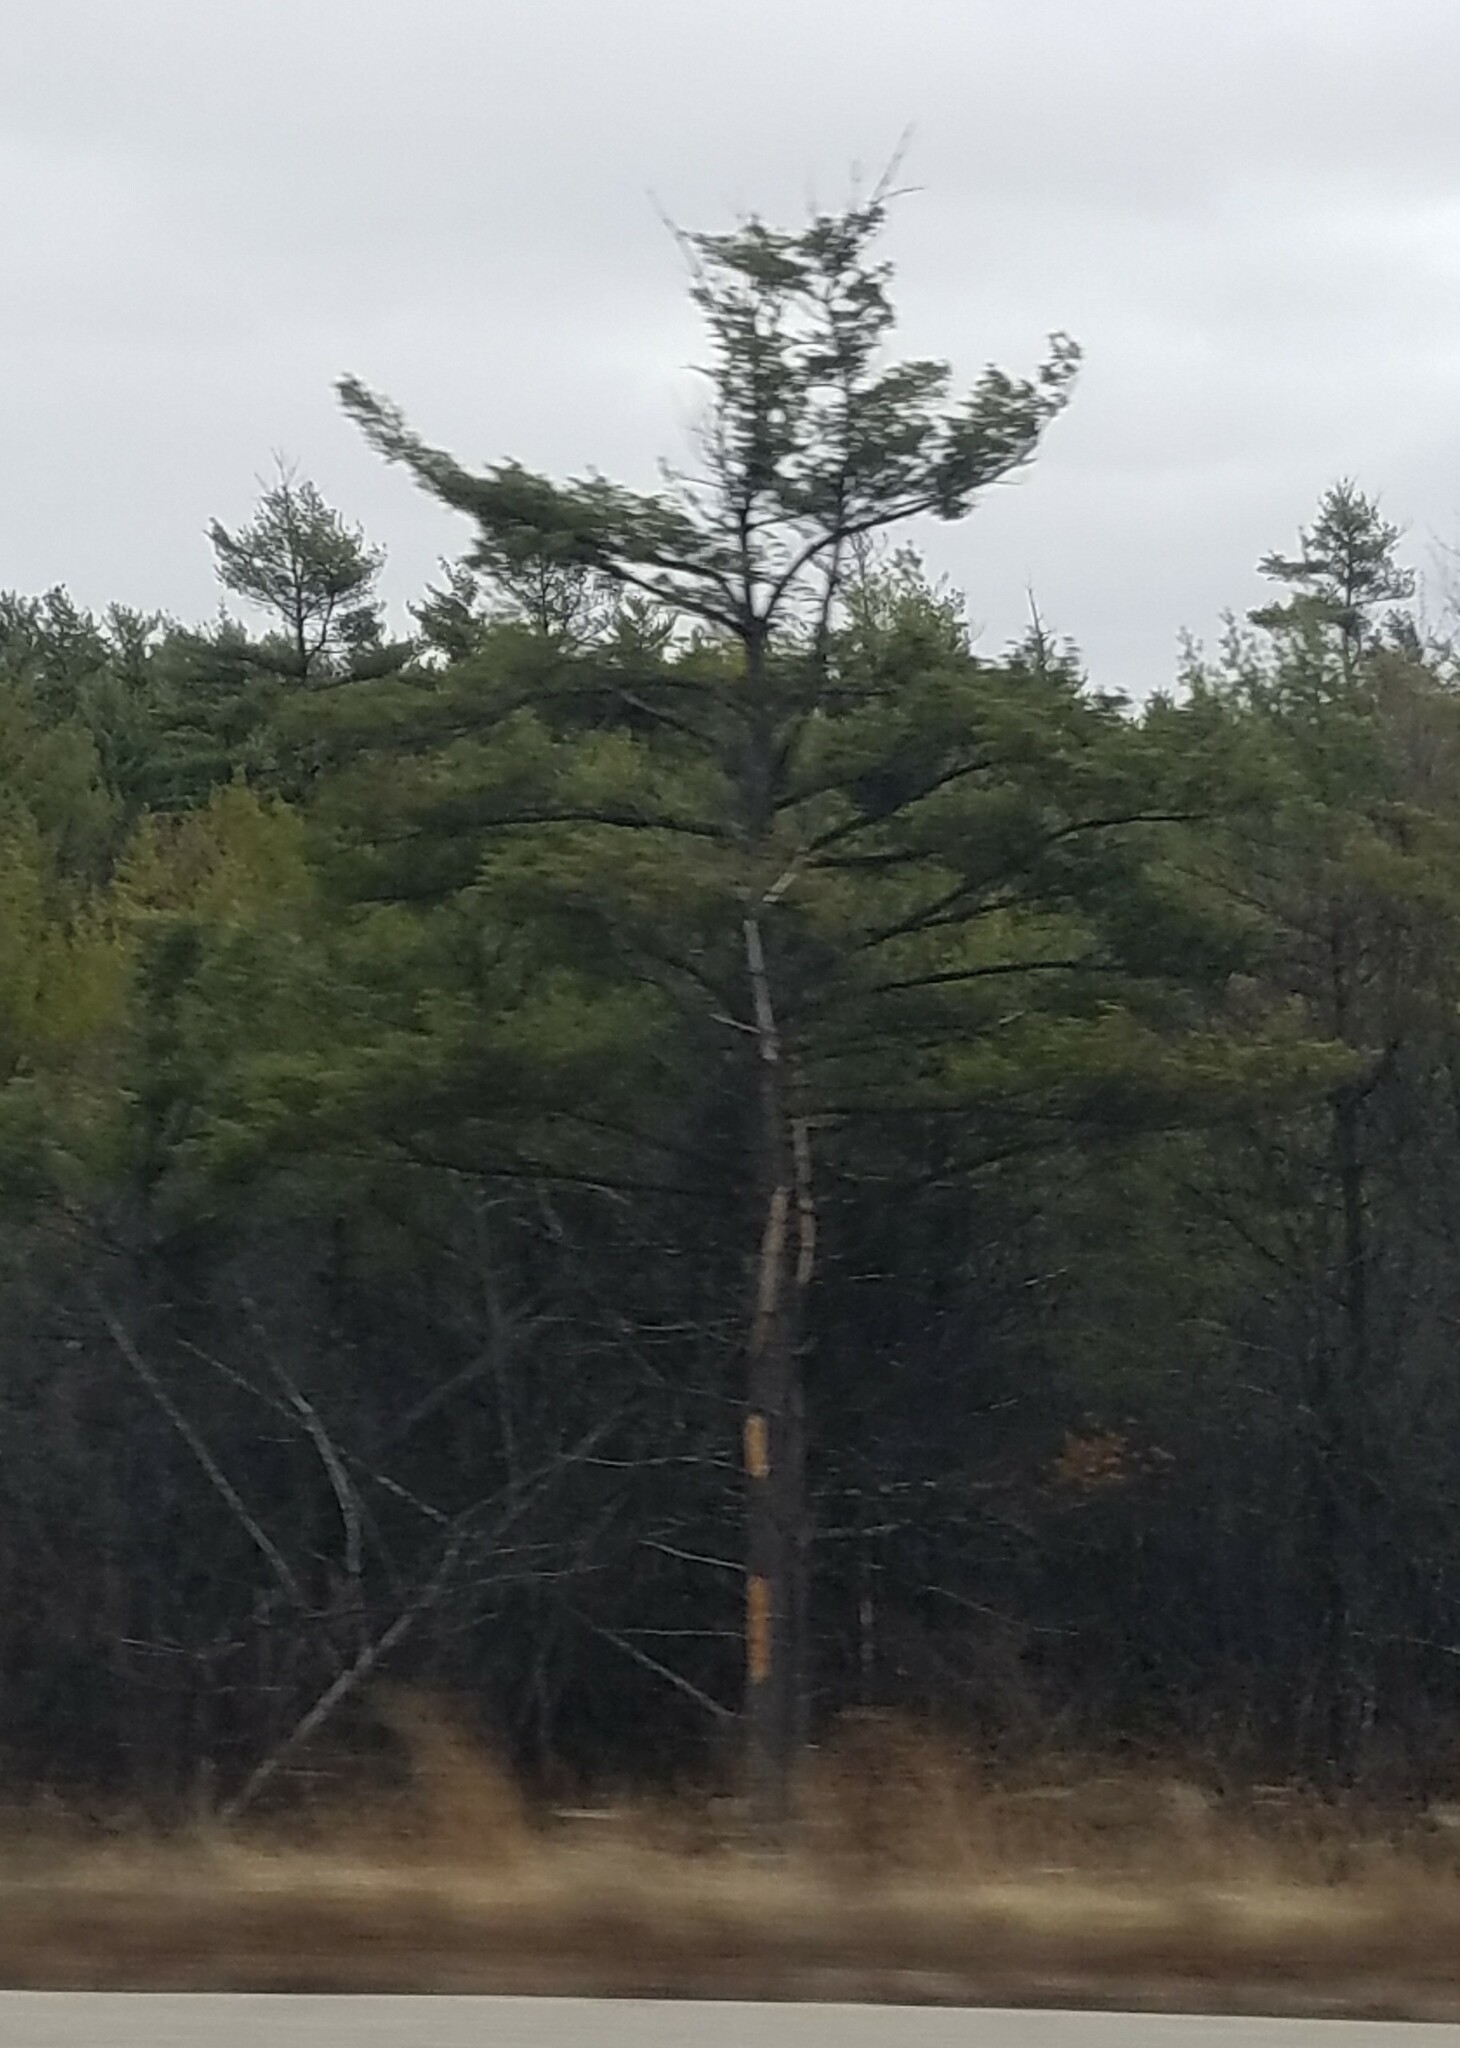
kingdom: Plantae
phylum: Tracheophyta
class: Pinopsida
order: Pinales
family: Pinaceae
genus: Pinus
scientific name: Pinus strobus
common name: Weymouth pine
